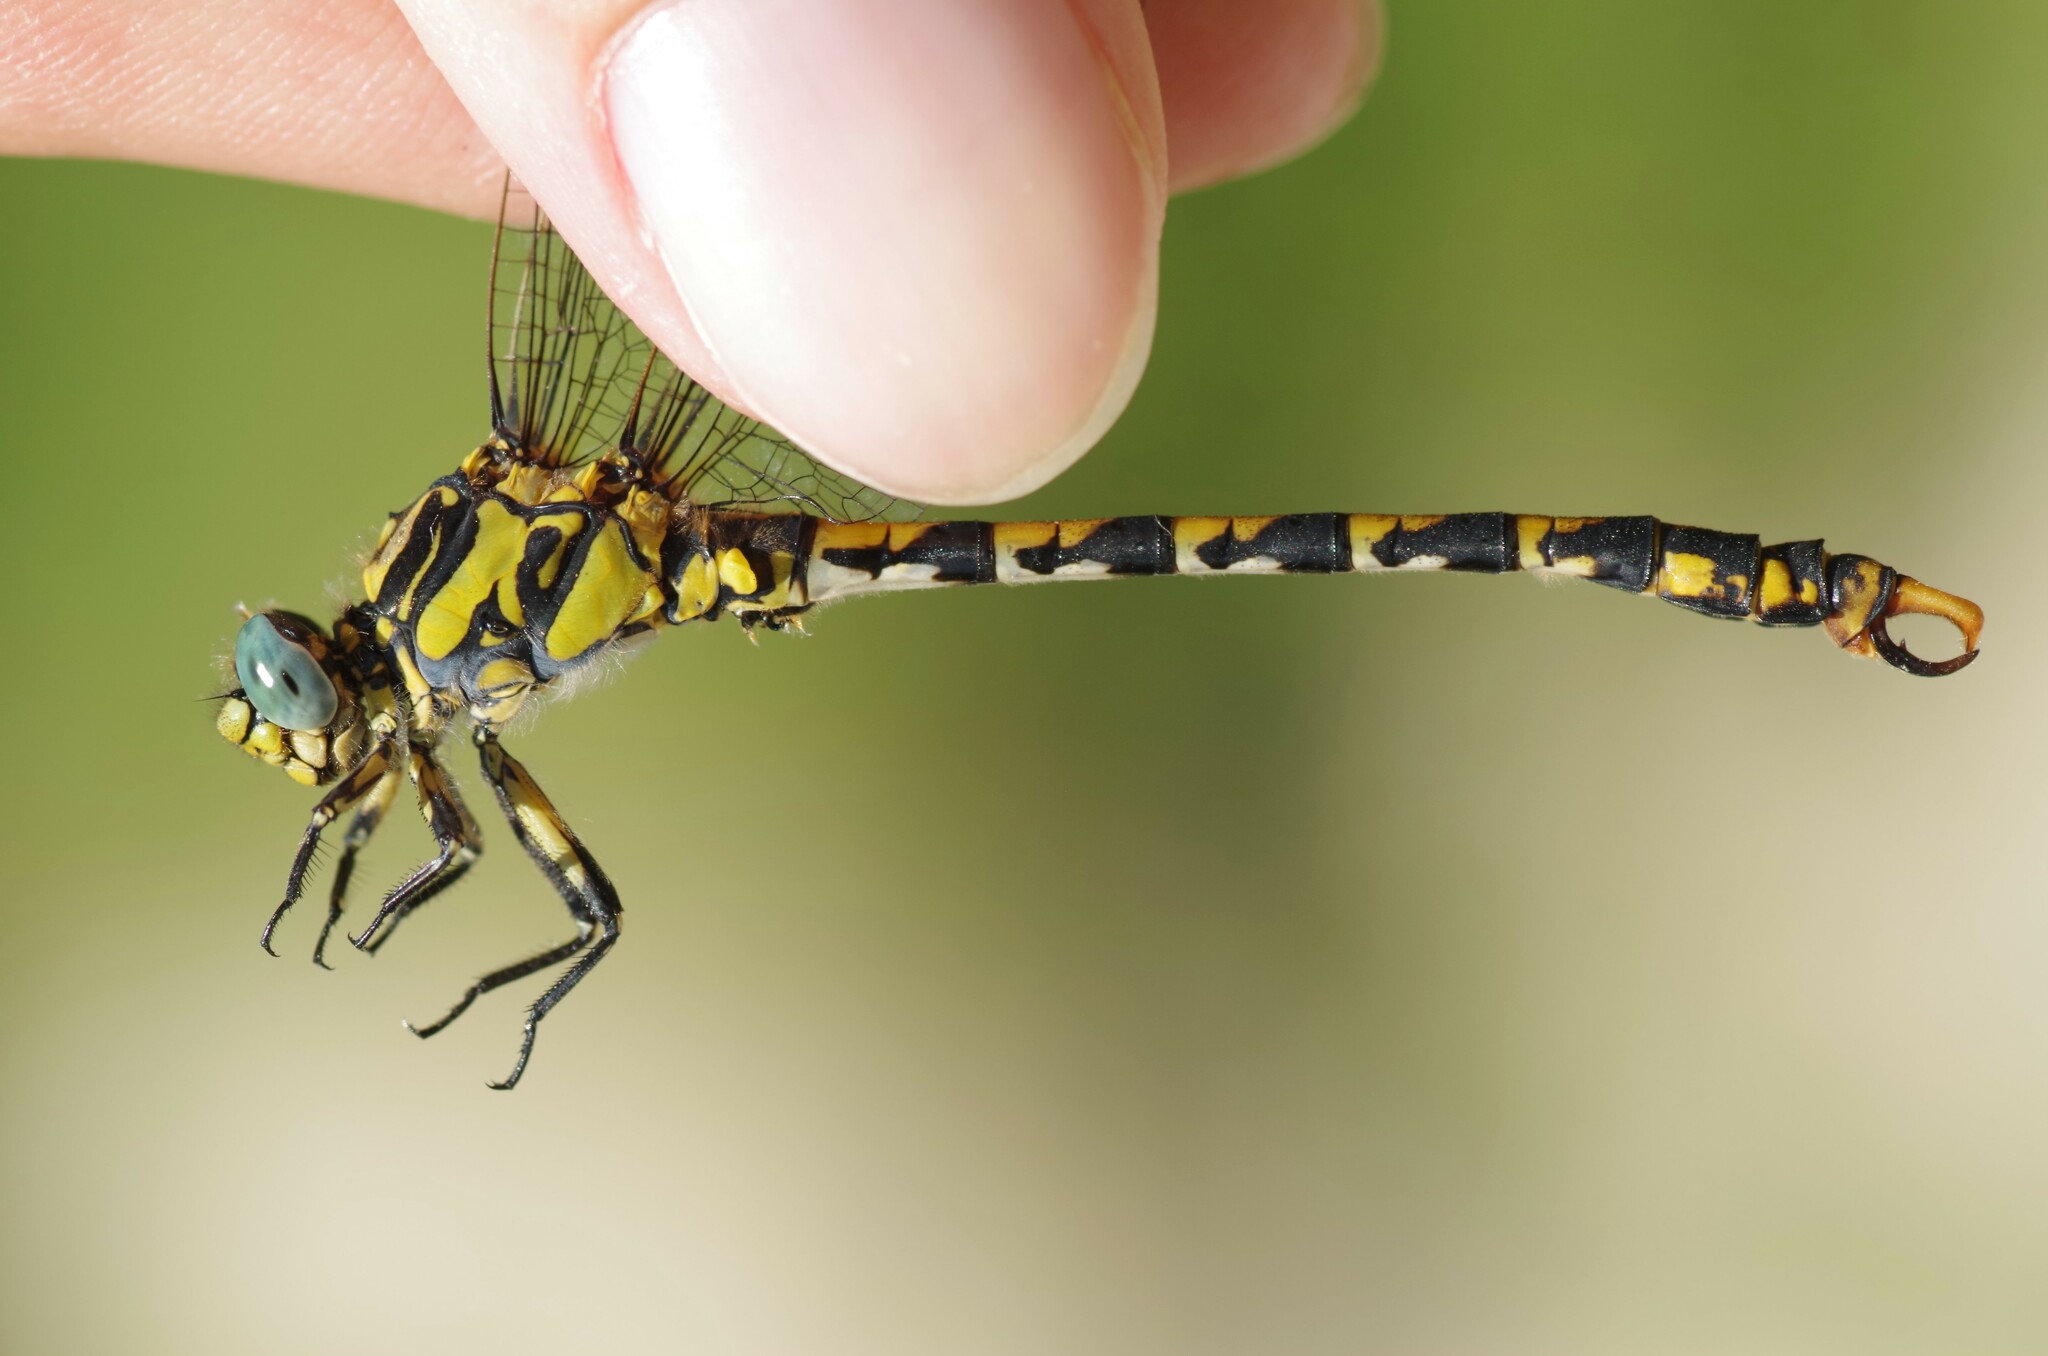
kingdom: Animalia
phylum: Arthropoda
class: Insecta
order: Odonata
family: Gomphidae
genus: Onychogomphus
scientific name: Onychogomphus uncatus
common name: Large pincertail
